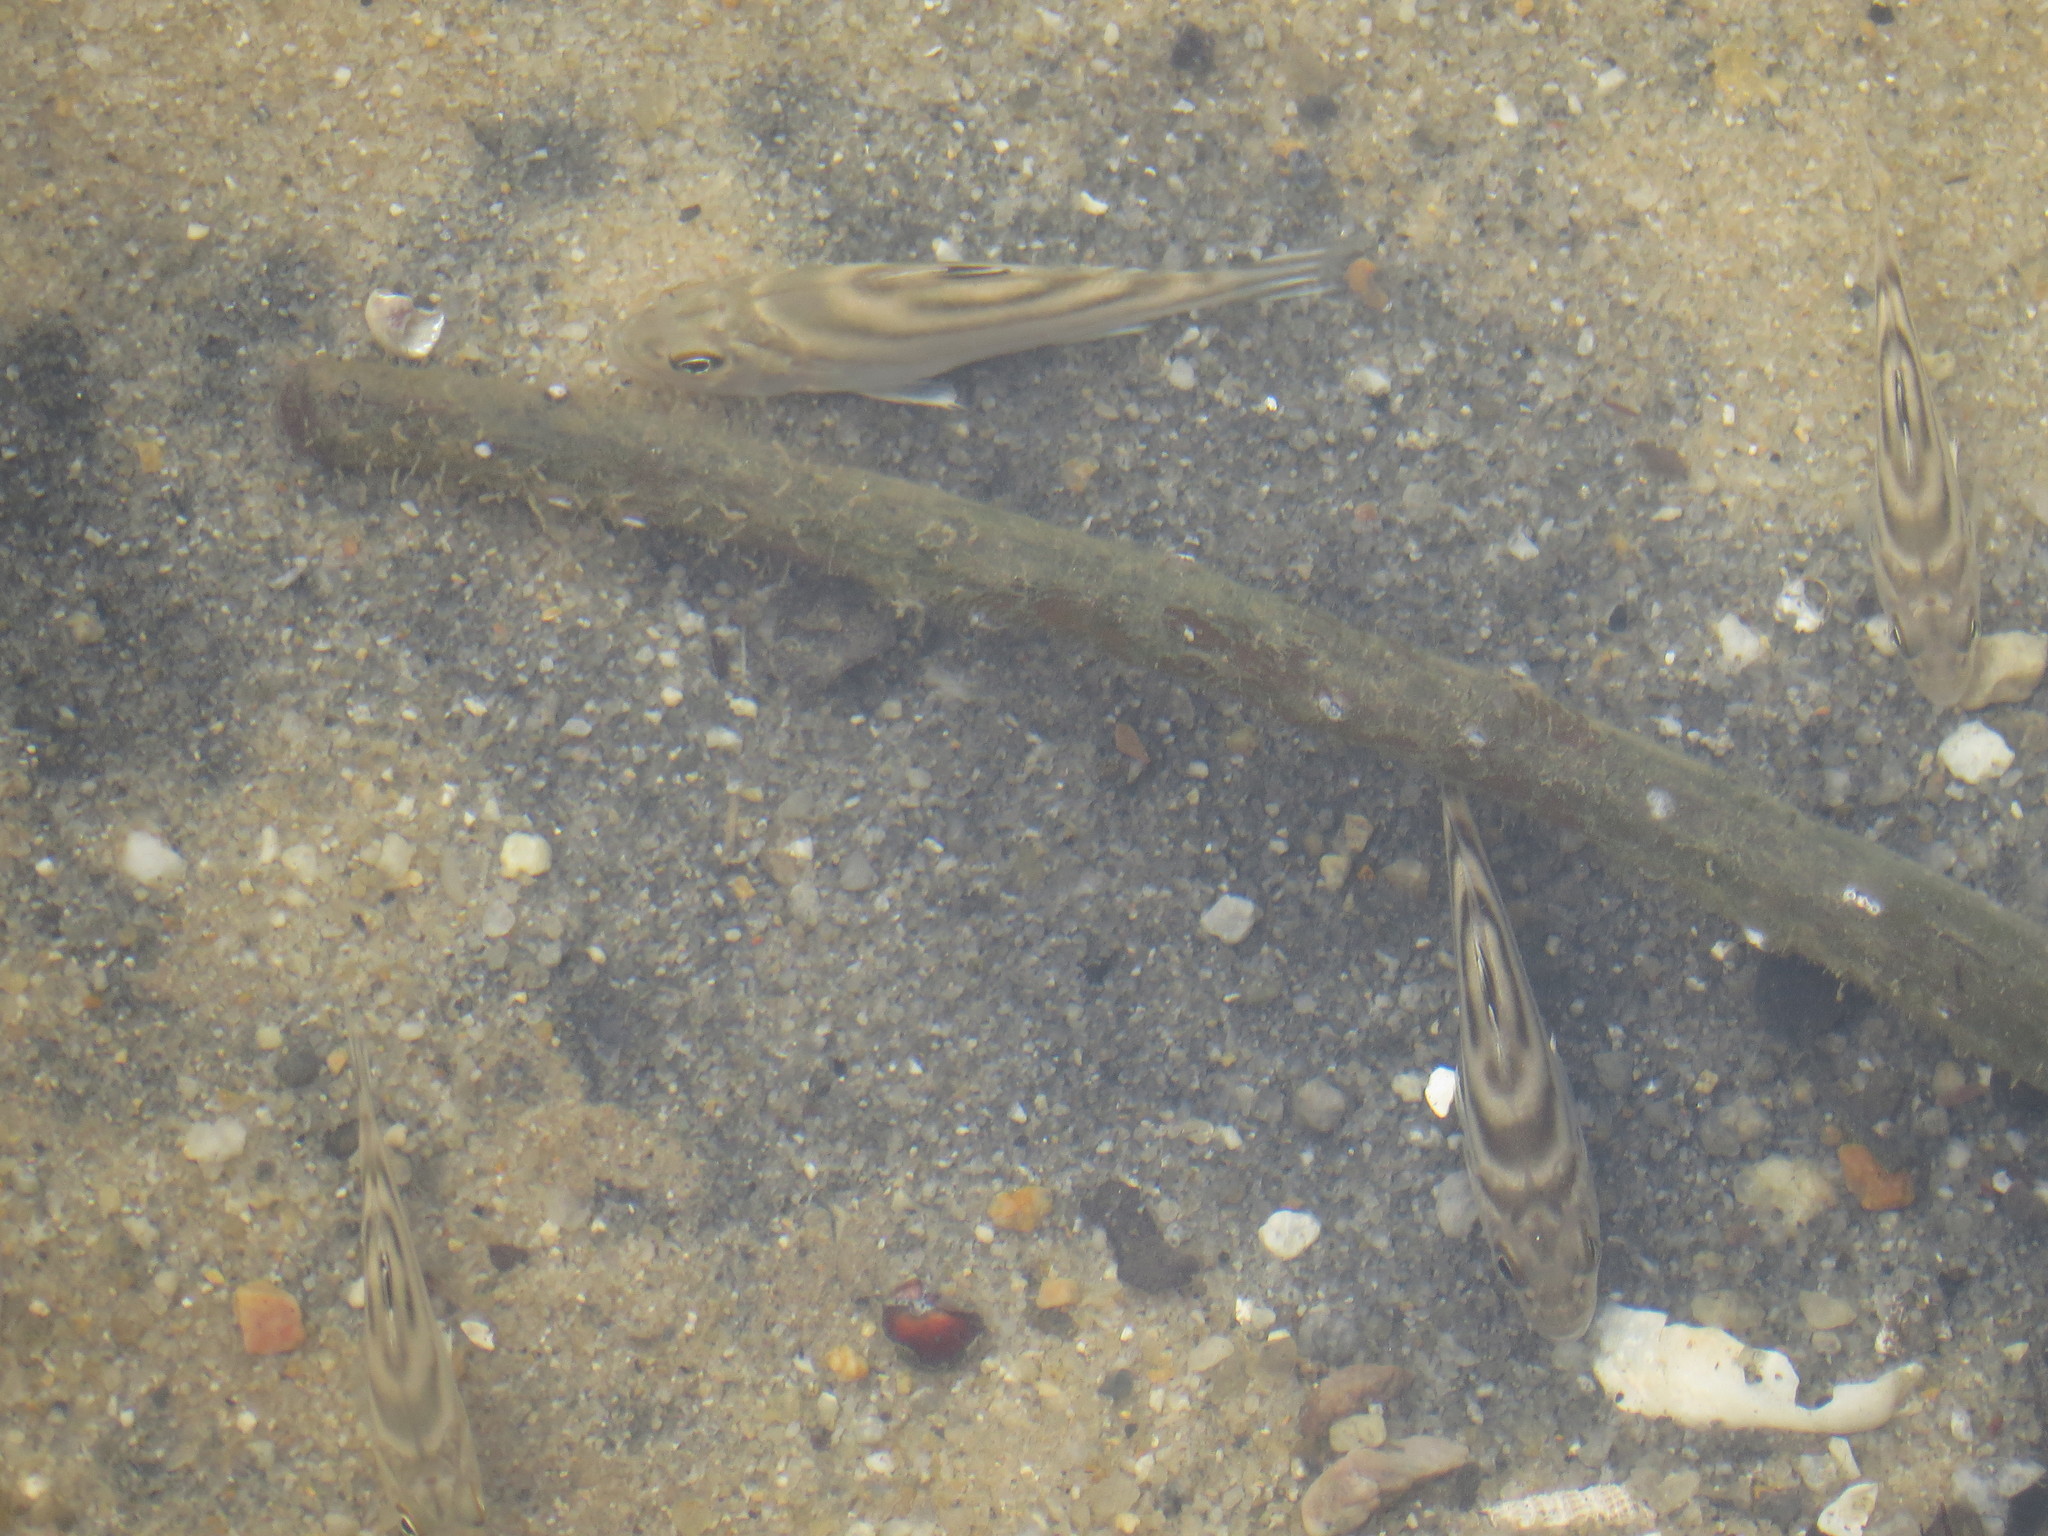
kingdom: Animalia
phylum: Chordata
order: Perciformes
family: Terapontidae
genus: Terapon
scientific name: Terapon jarbua
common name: Jarbua terapon
